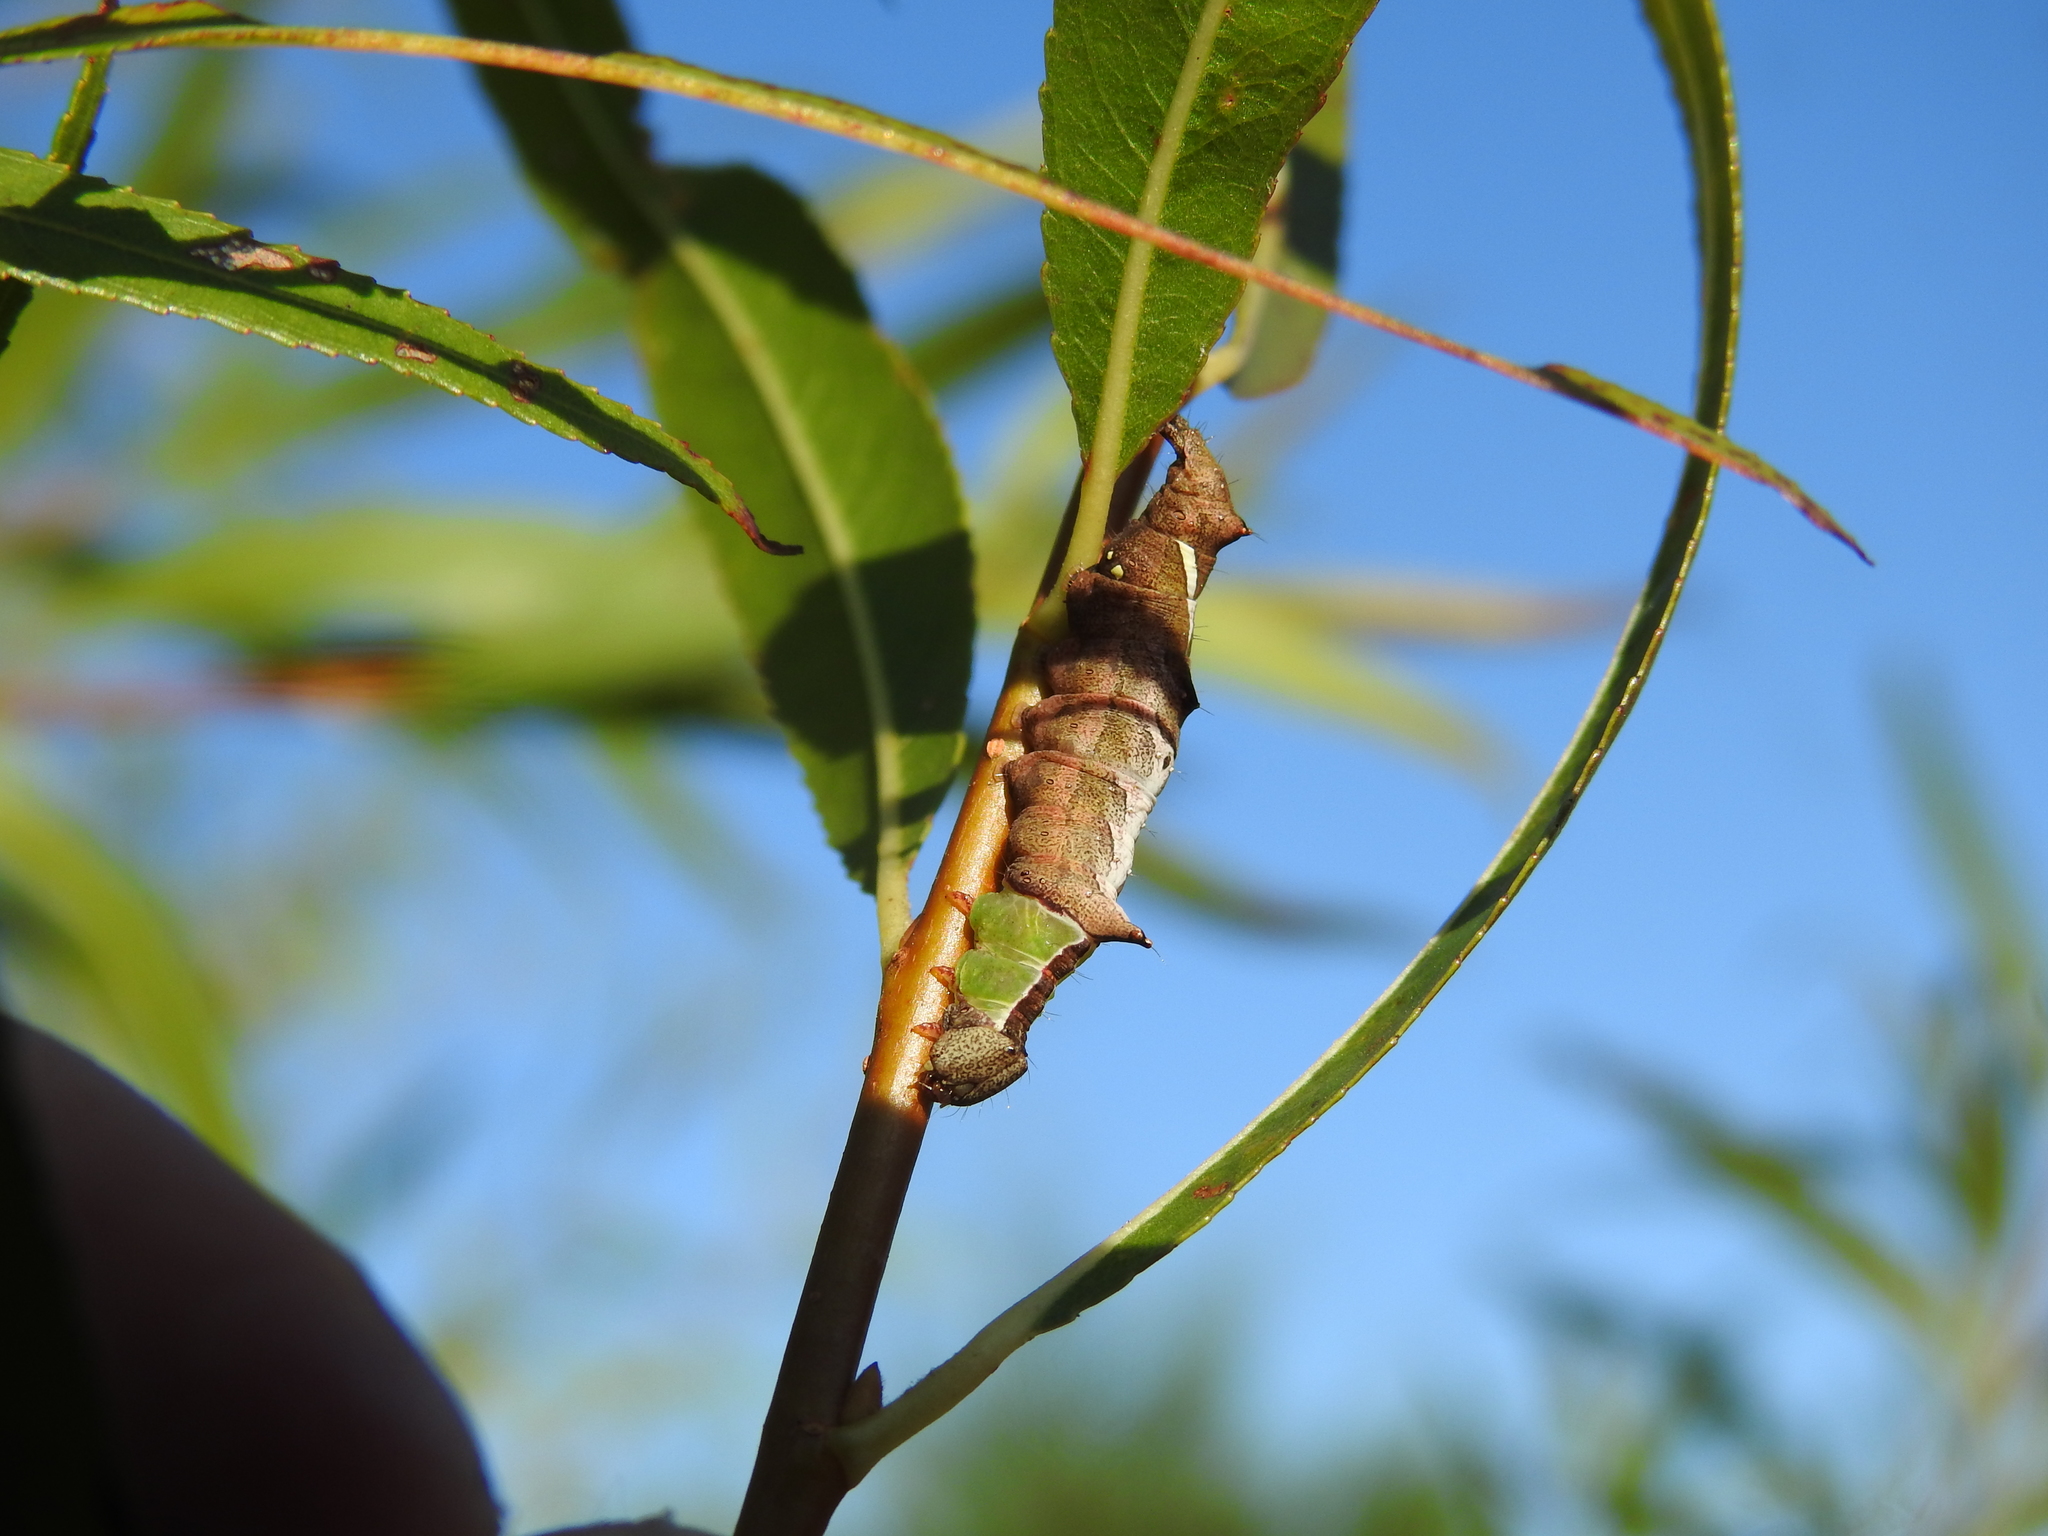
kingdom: Animalia
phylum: Arthropoda
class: Insecta
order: Lepidoptera
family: Notodontidae
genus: Schizura
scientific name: Schizura
